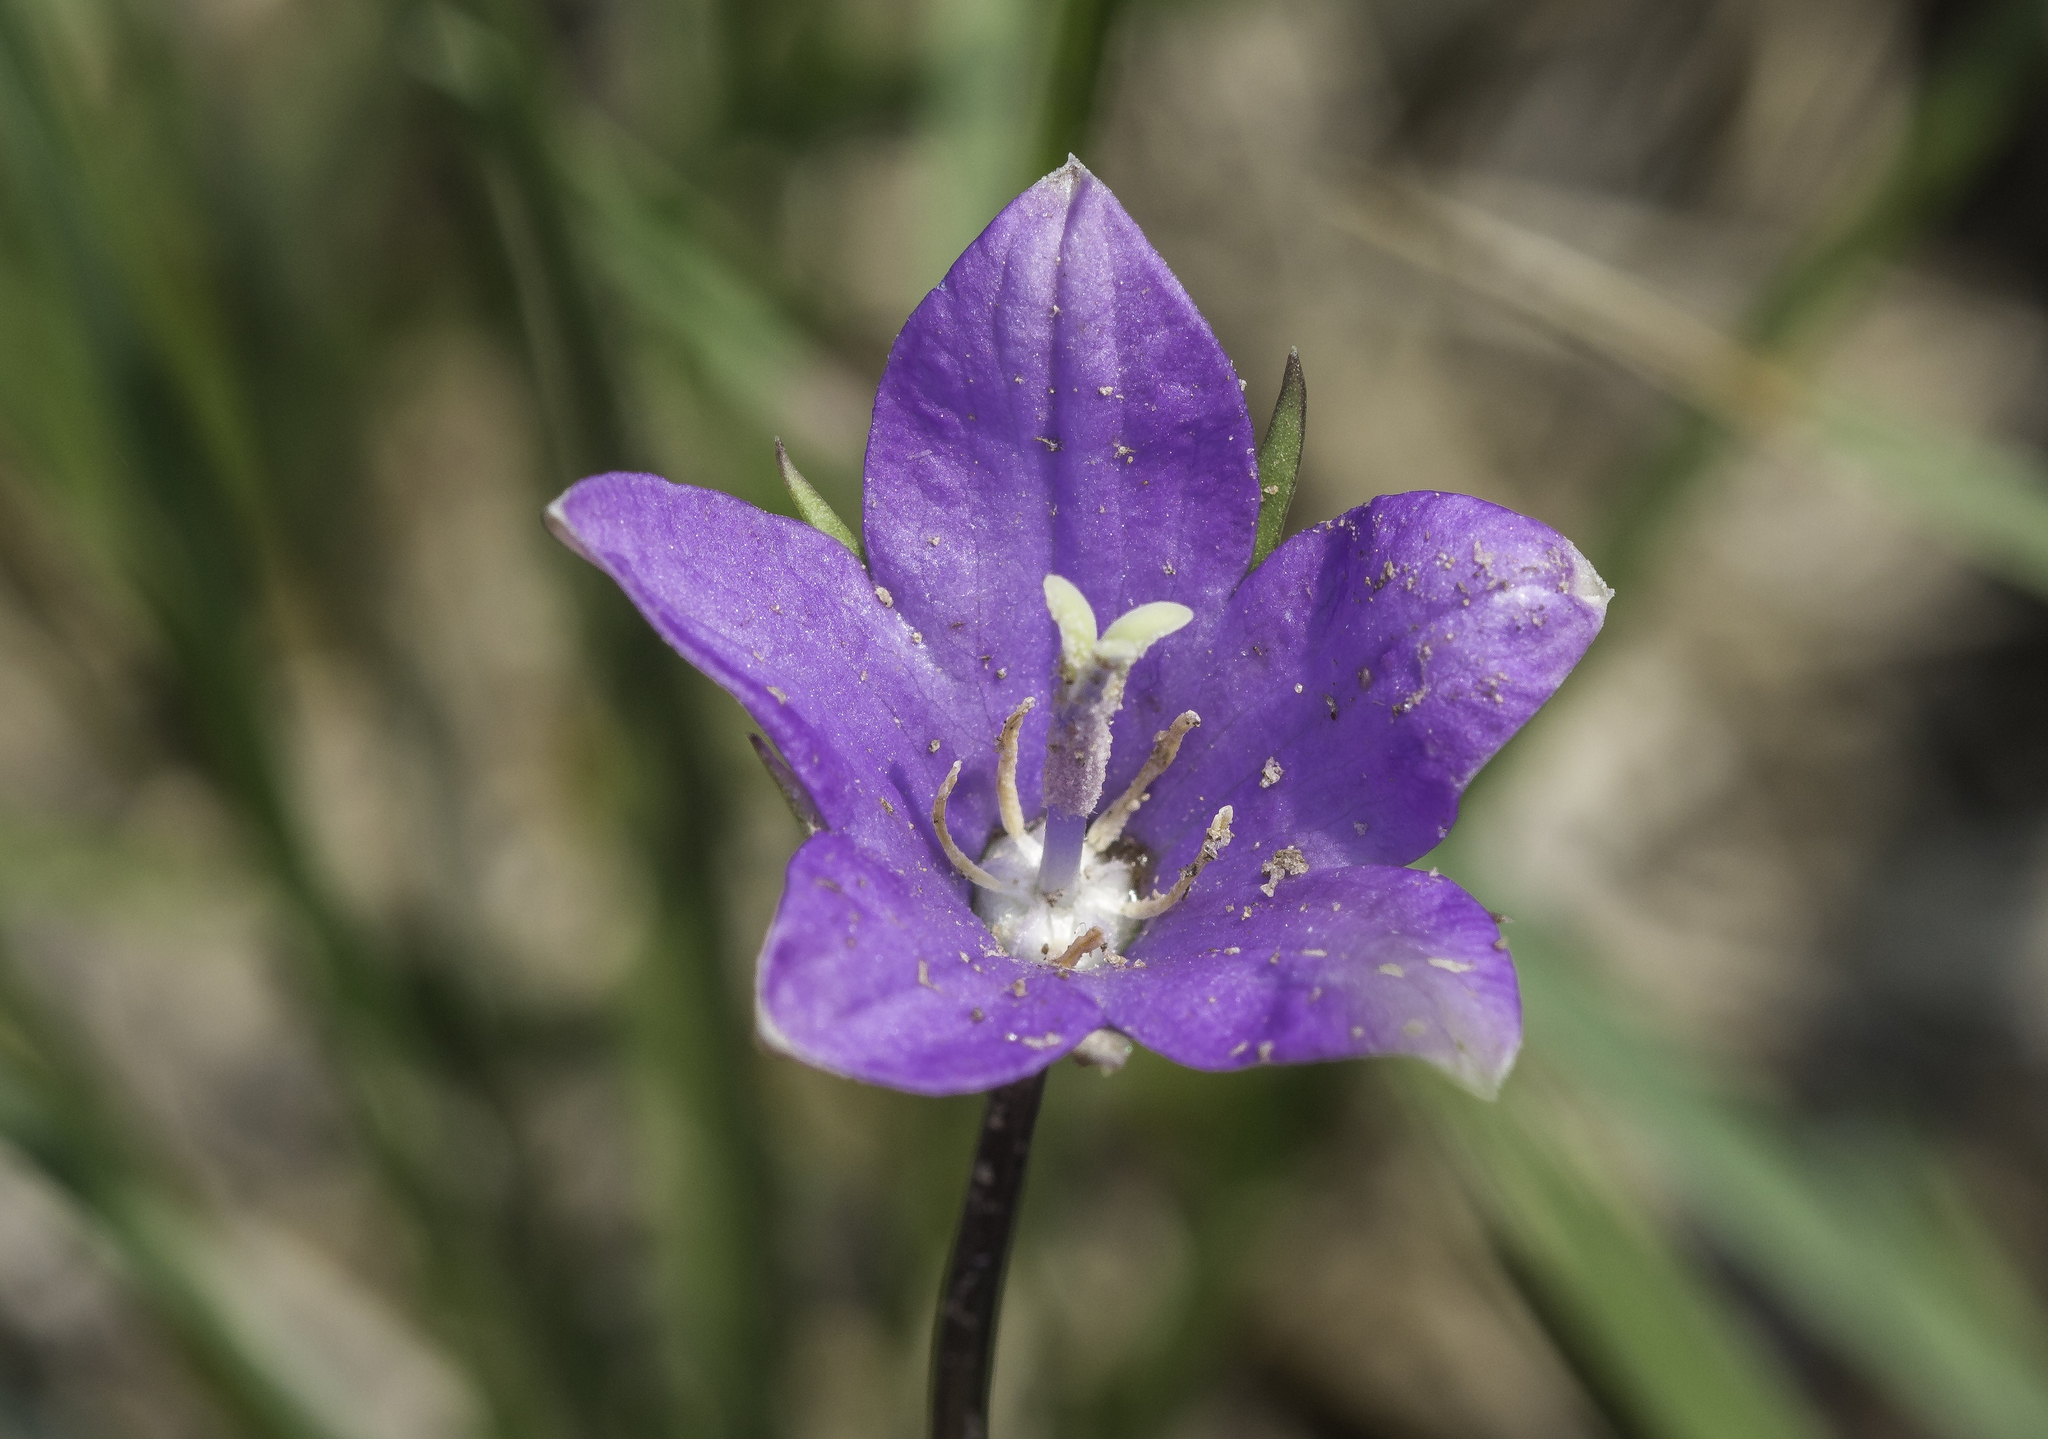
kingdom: Plantae
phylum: Tracheophyta
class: Magnoliopsida
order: Asterales
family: Campanulaceae
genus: Campanula
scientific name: Campanula parryi
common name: Rocky mountain bellflower
